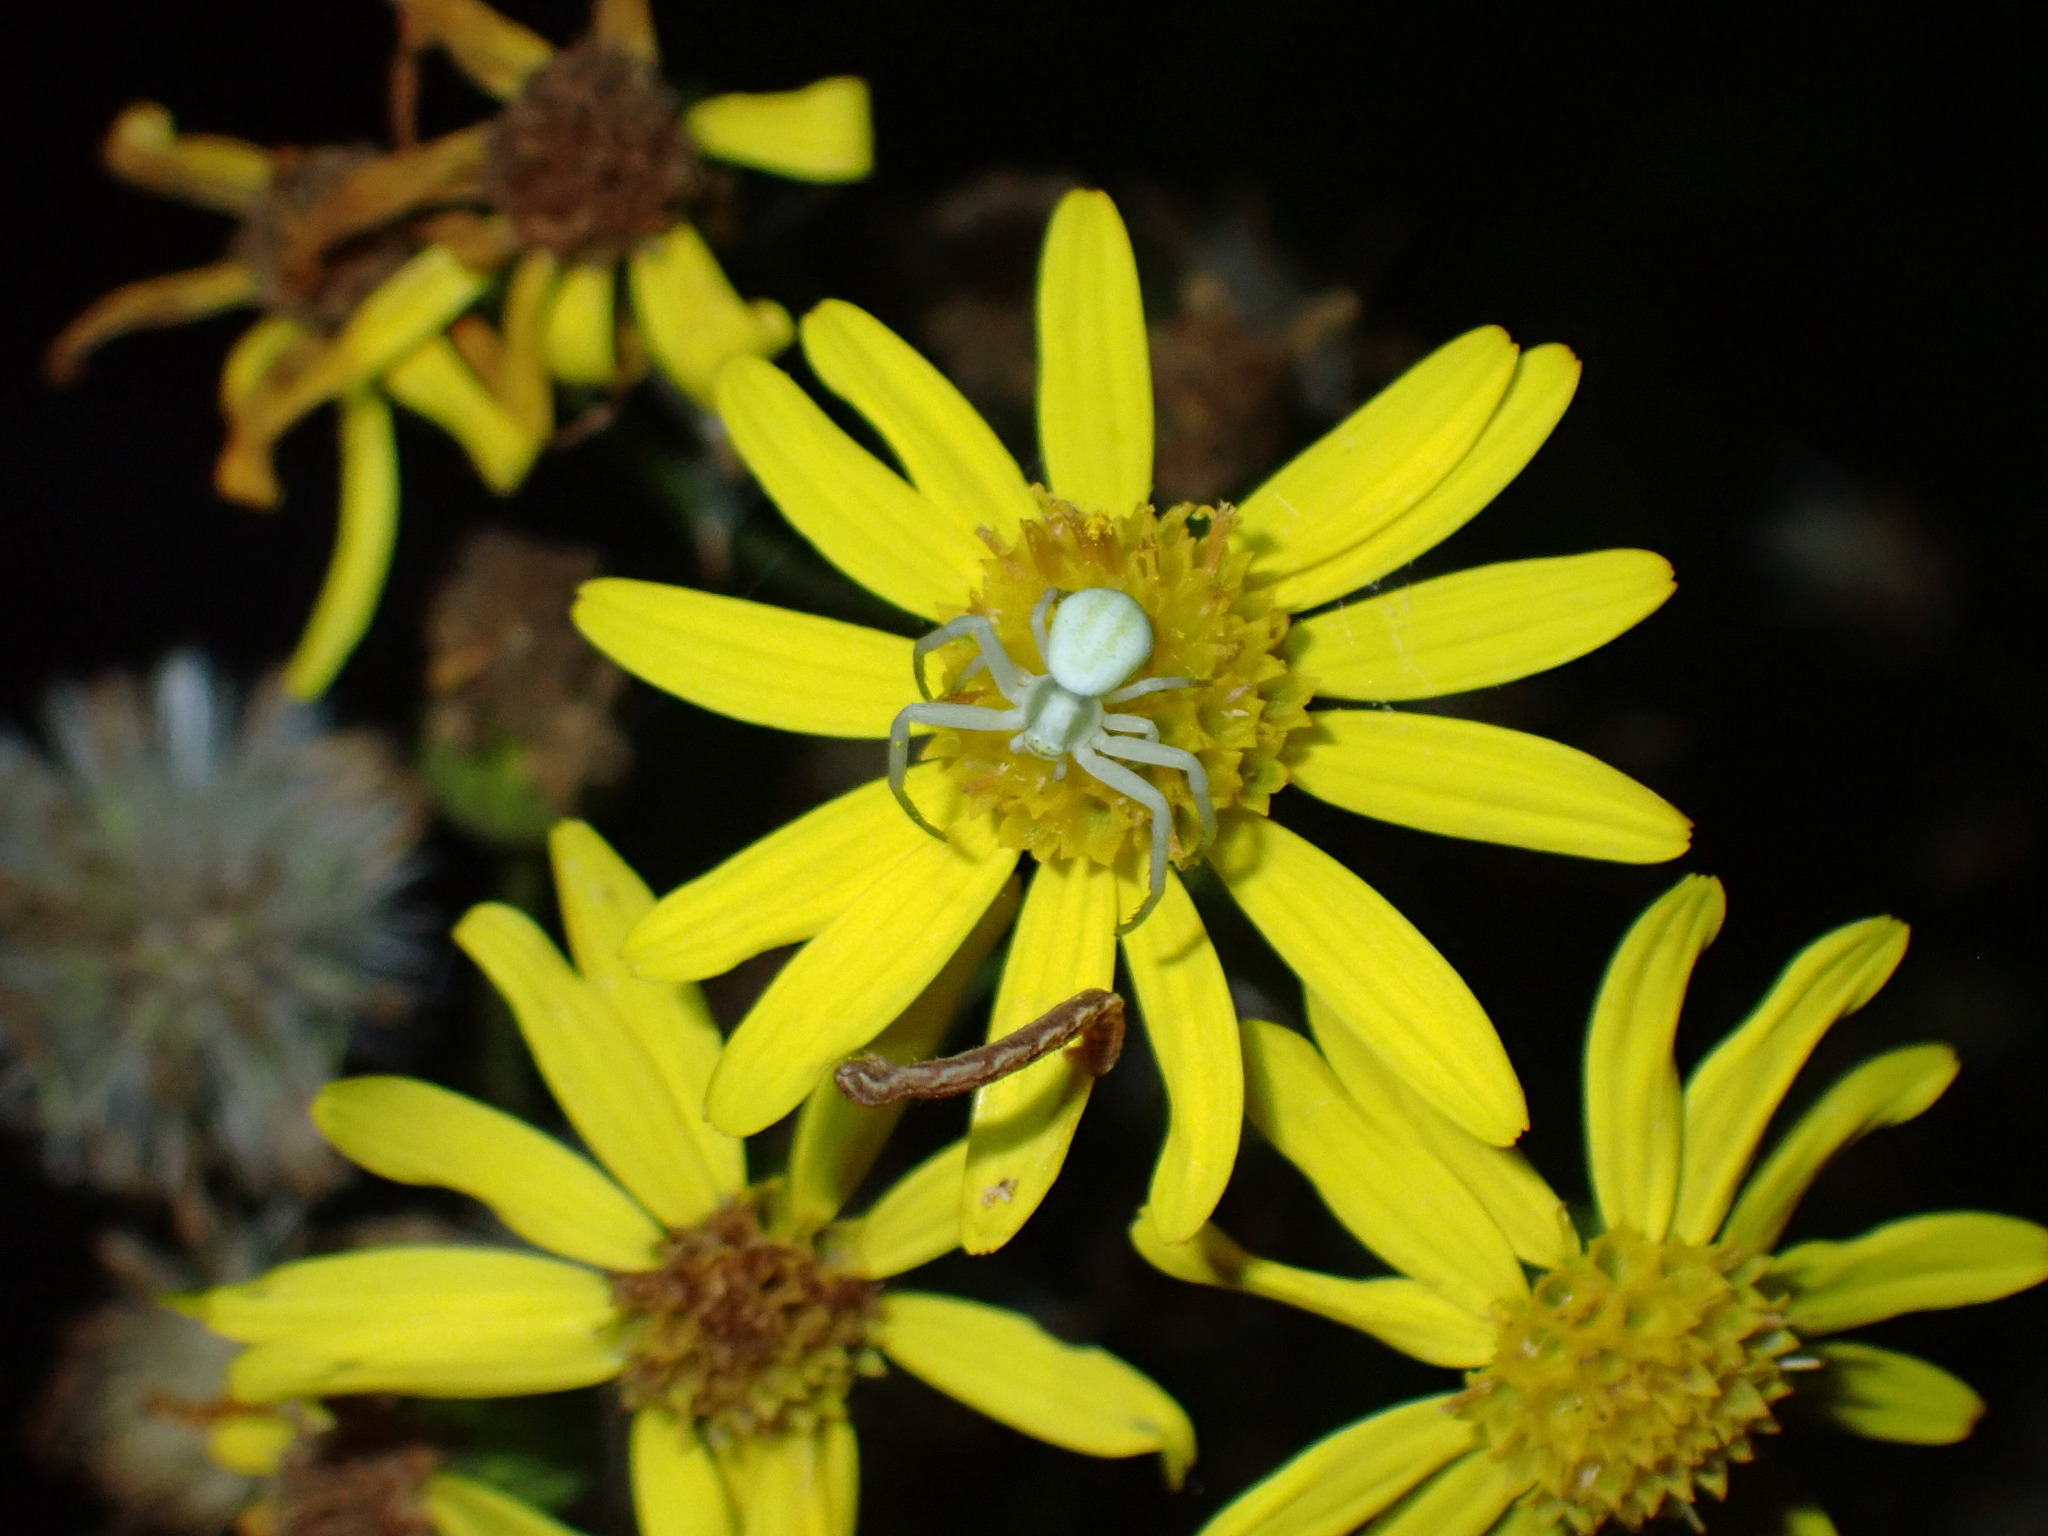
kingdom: Animalia
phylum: Arthropoda
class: Arachnida
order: Araneae
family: Thomisidae
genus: Misumena
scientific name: Misumena vatia
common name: Goldenrod crab spider
